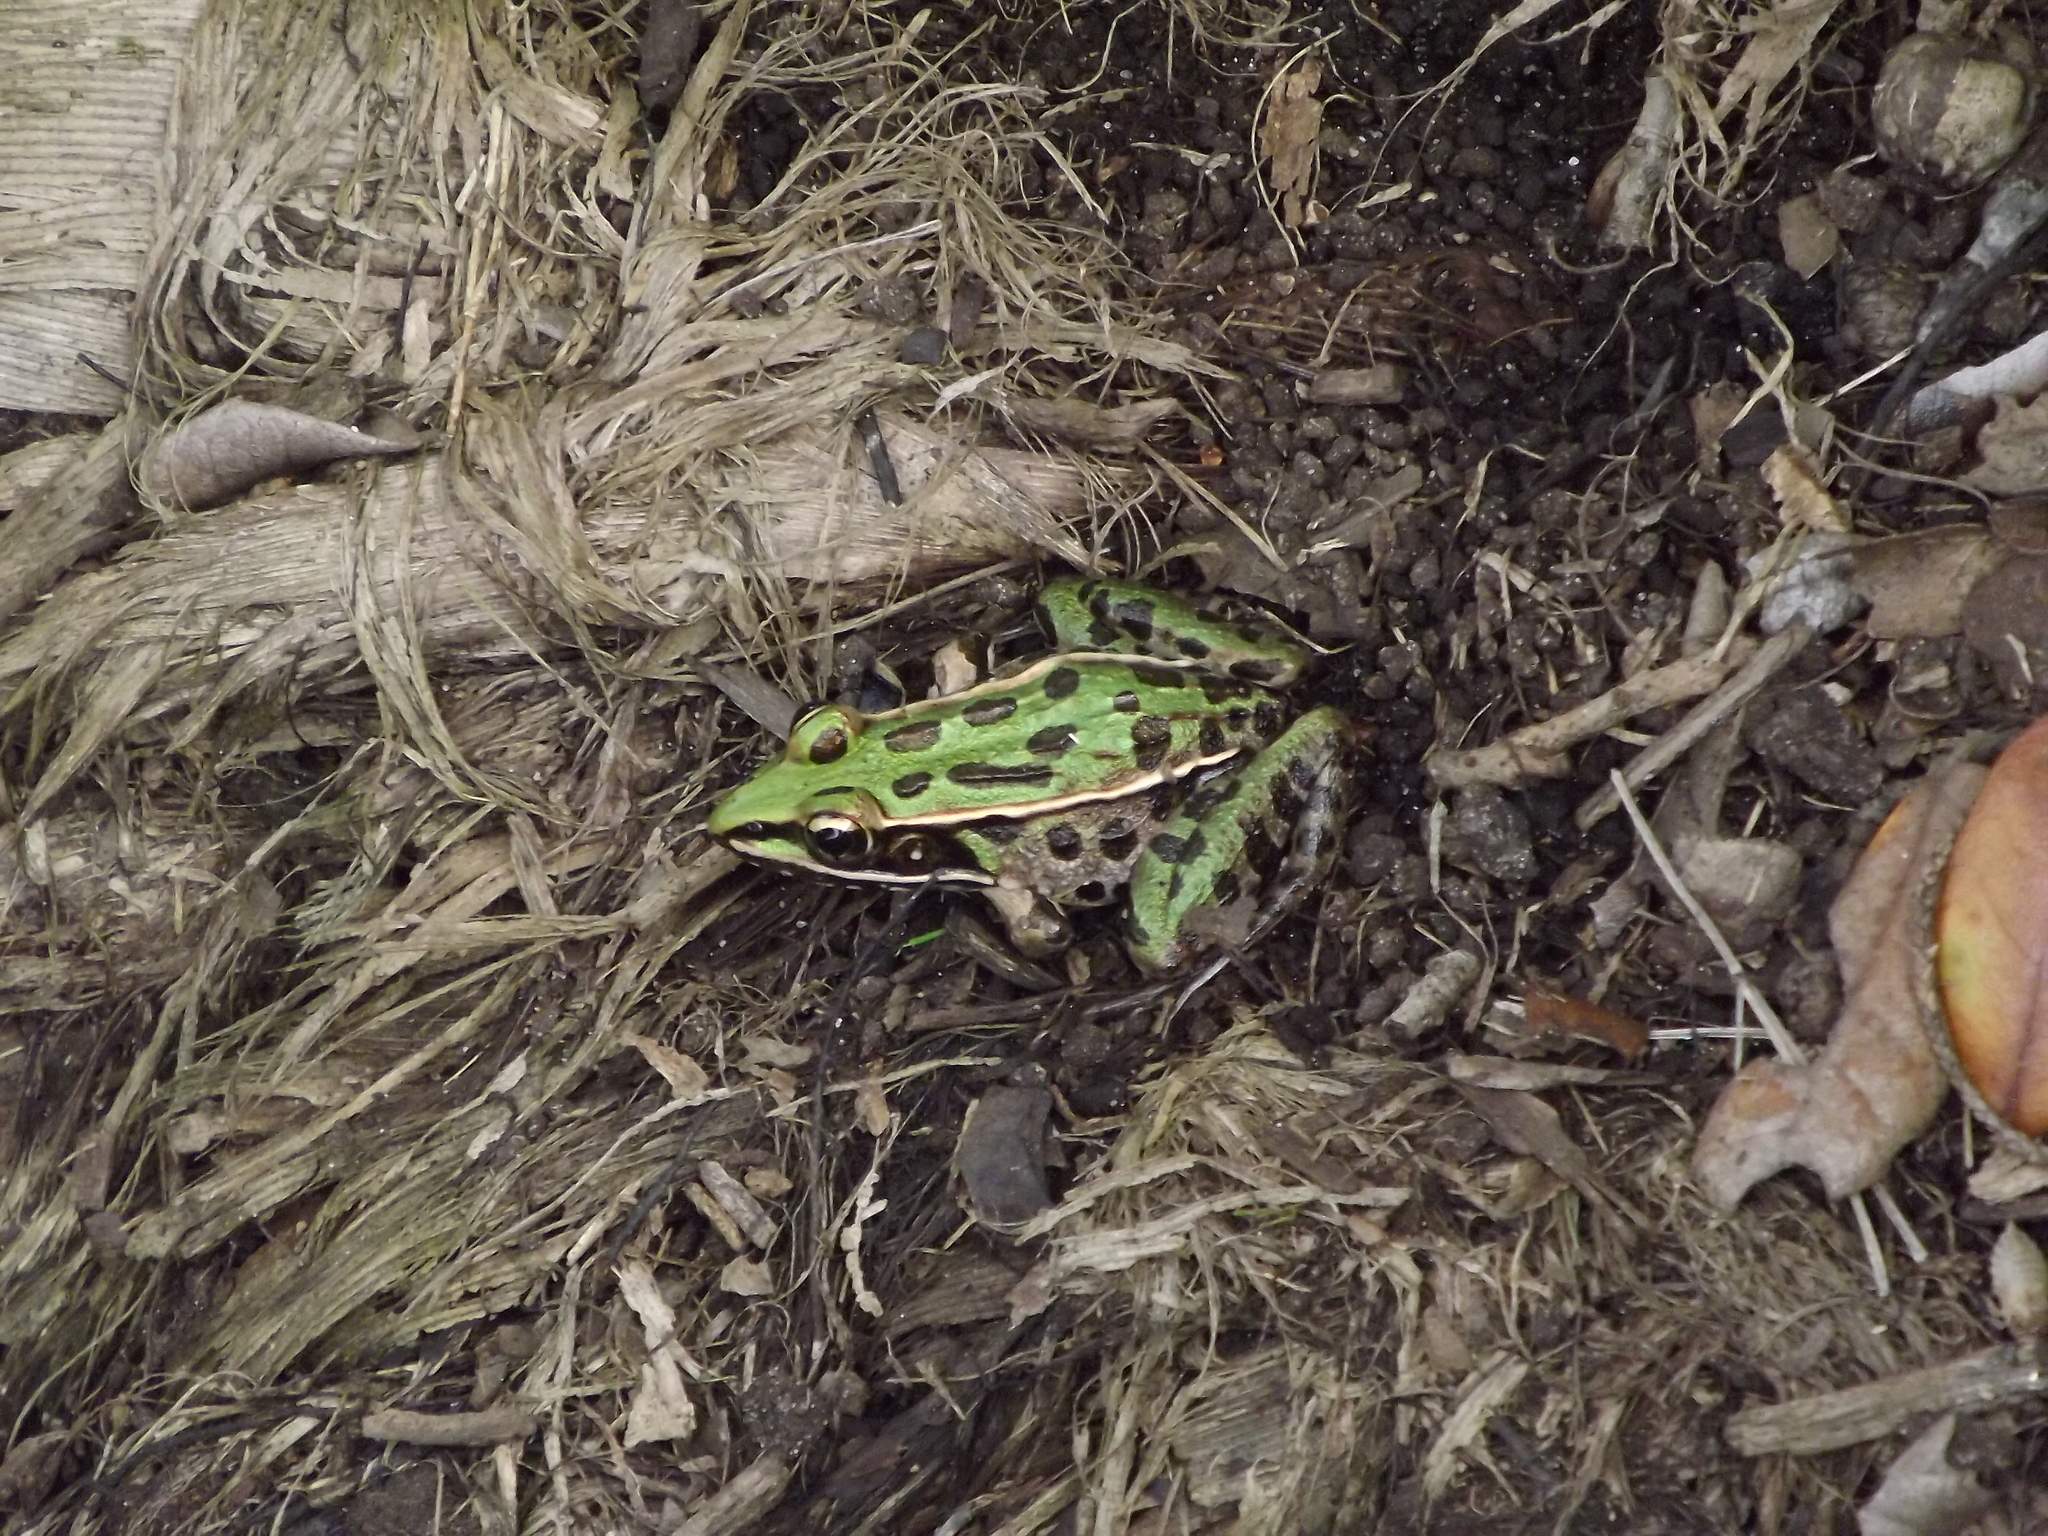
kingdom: Animalia
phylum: Chordata
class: Amphibia
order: Anura
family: Ranidae
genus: Lithobates
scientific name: Lithobates sphenocephalus
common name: Southern leopard frog
